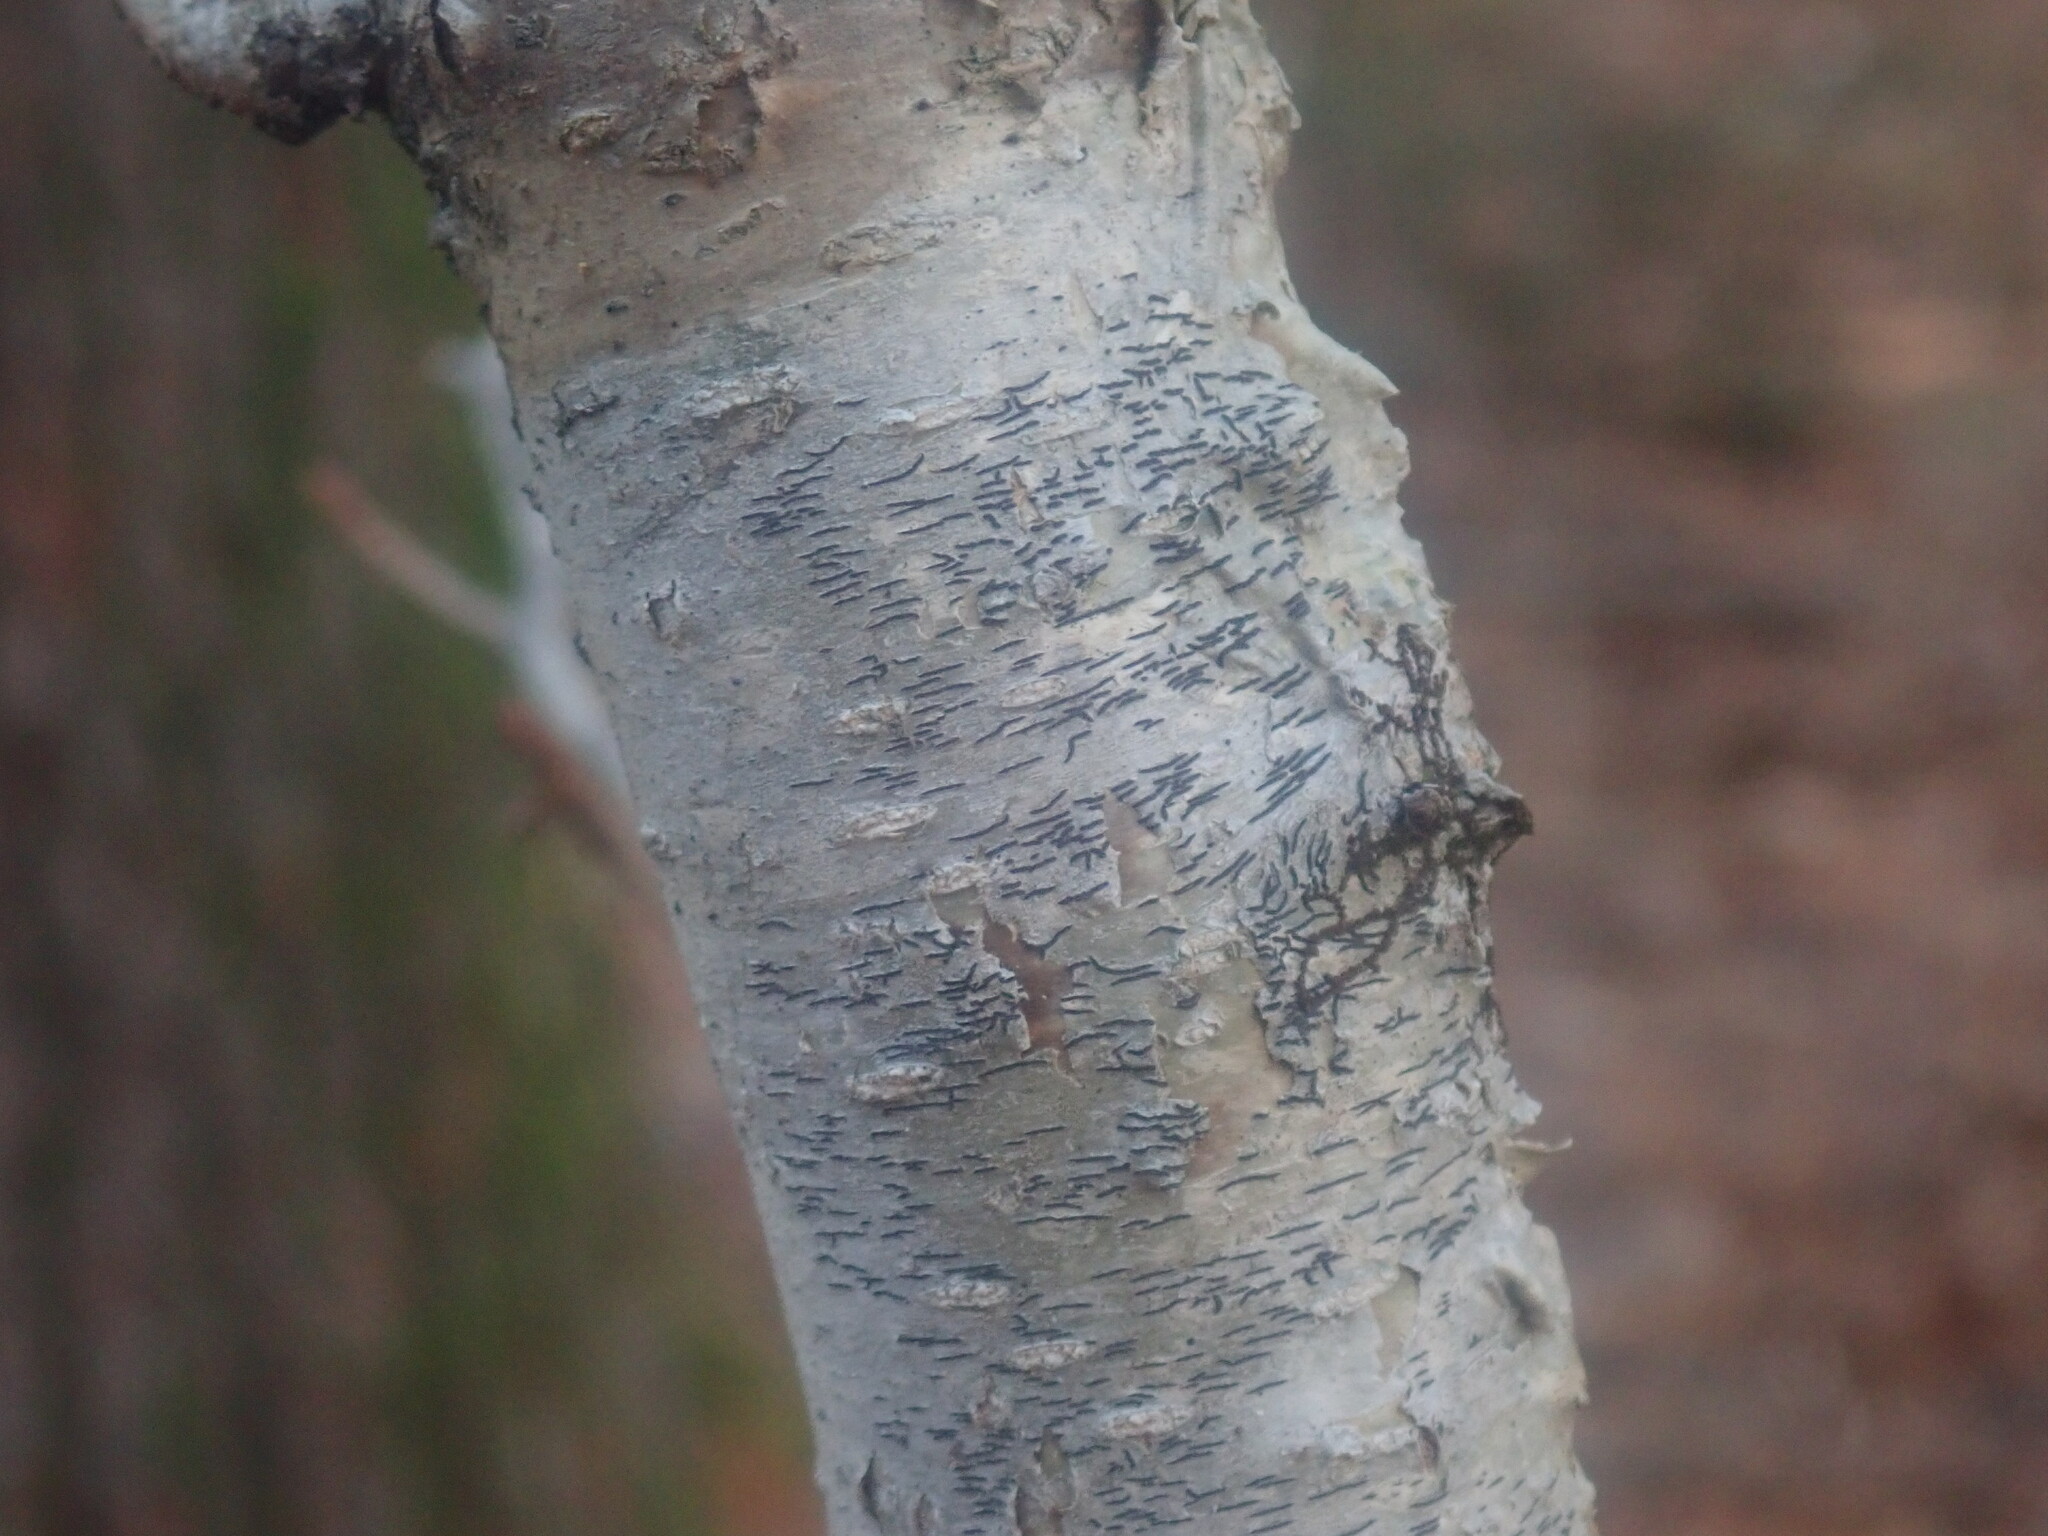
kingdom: Fungi
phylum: Ascomycota
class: Lecanoromycetes
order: Ostropales
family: Graphidaceae
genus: Graphis
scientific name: Graphis scripta
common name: Script lichen
